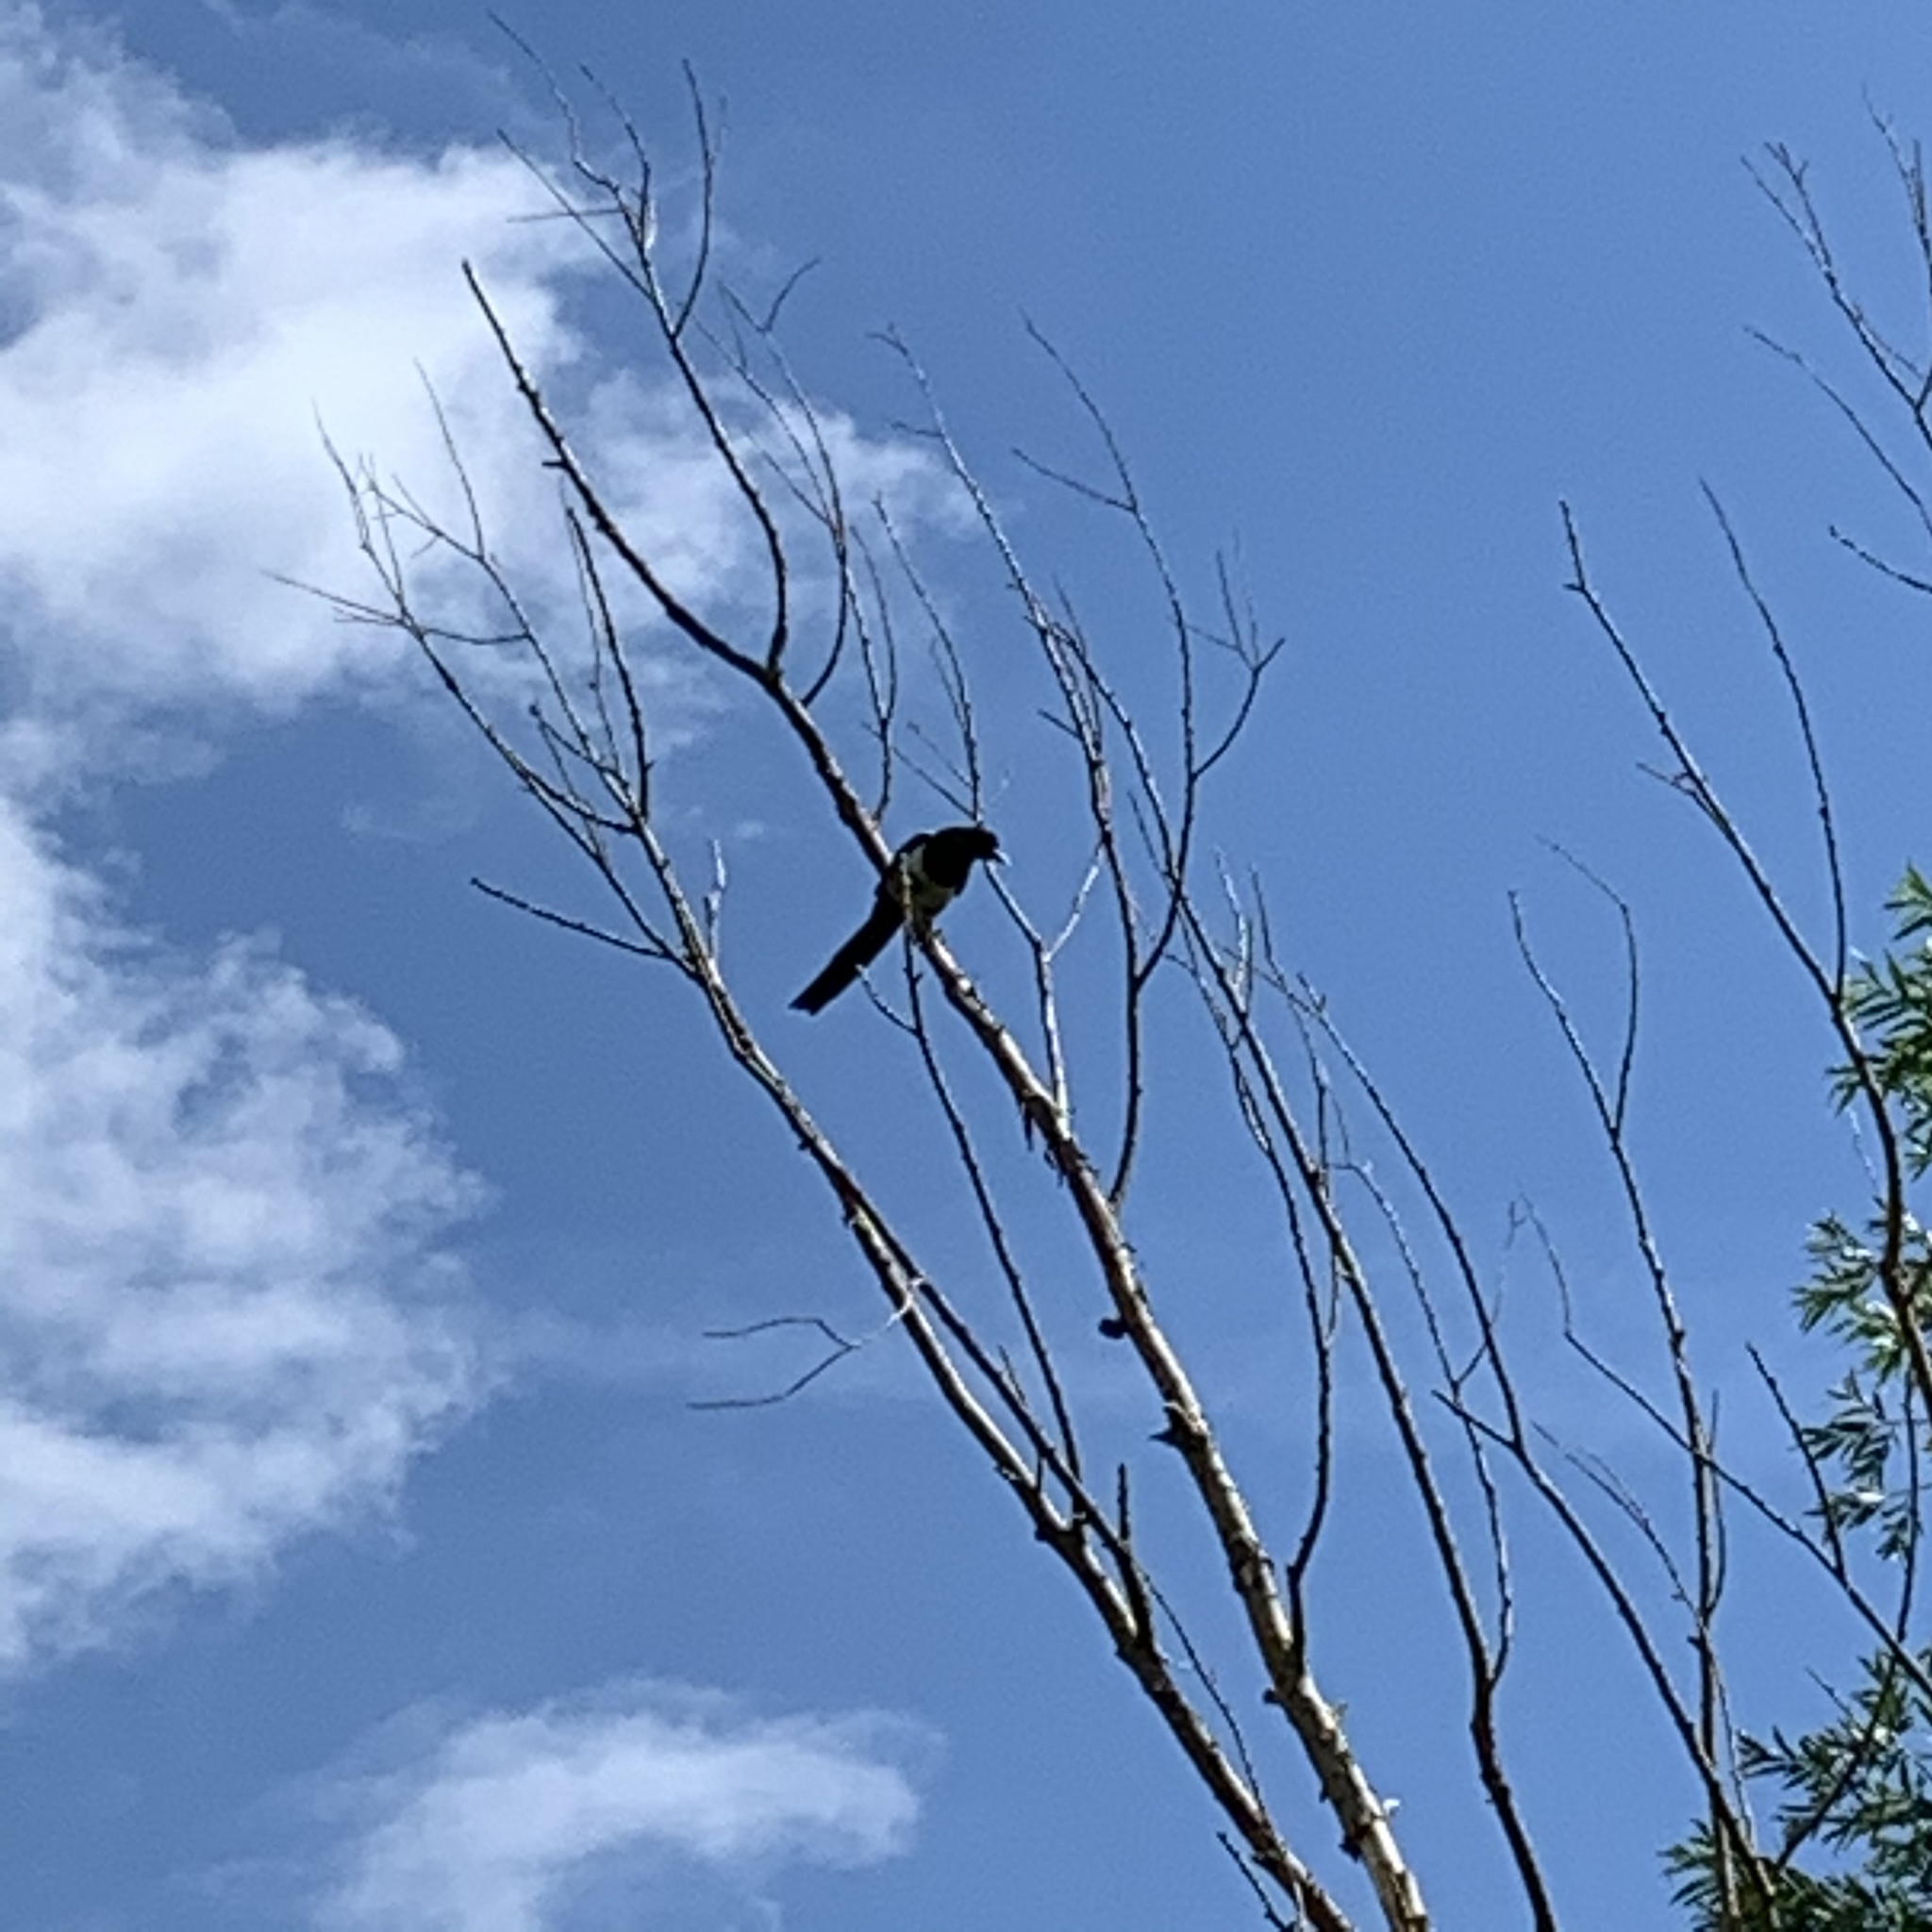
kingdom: Animalia
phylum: Chordata
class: Aves
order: Passeriformes
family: Corvidae
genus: Pica
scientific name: Pica pica
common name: Eurasian magpie
